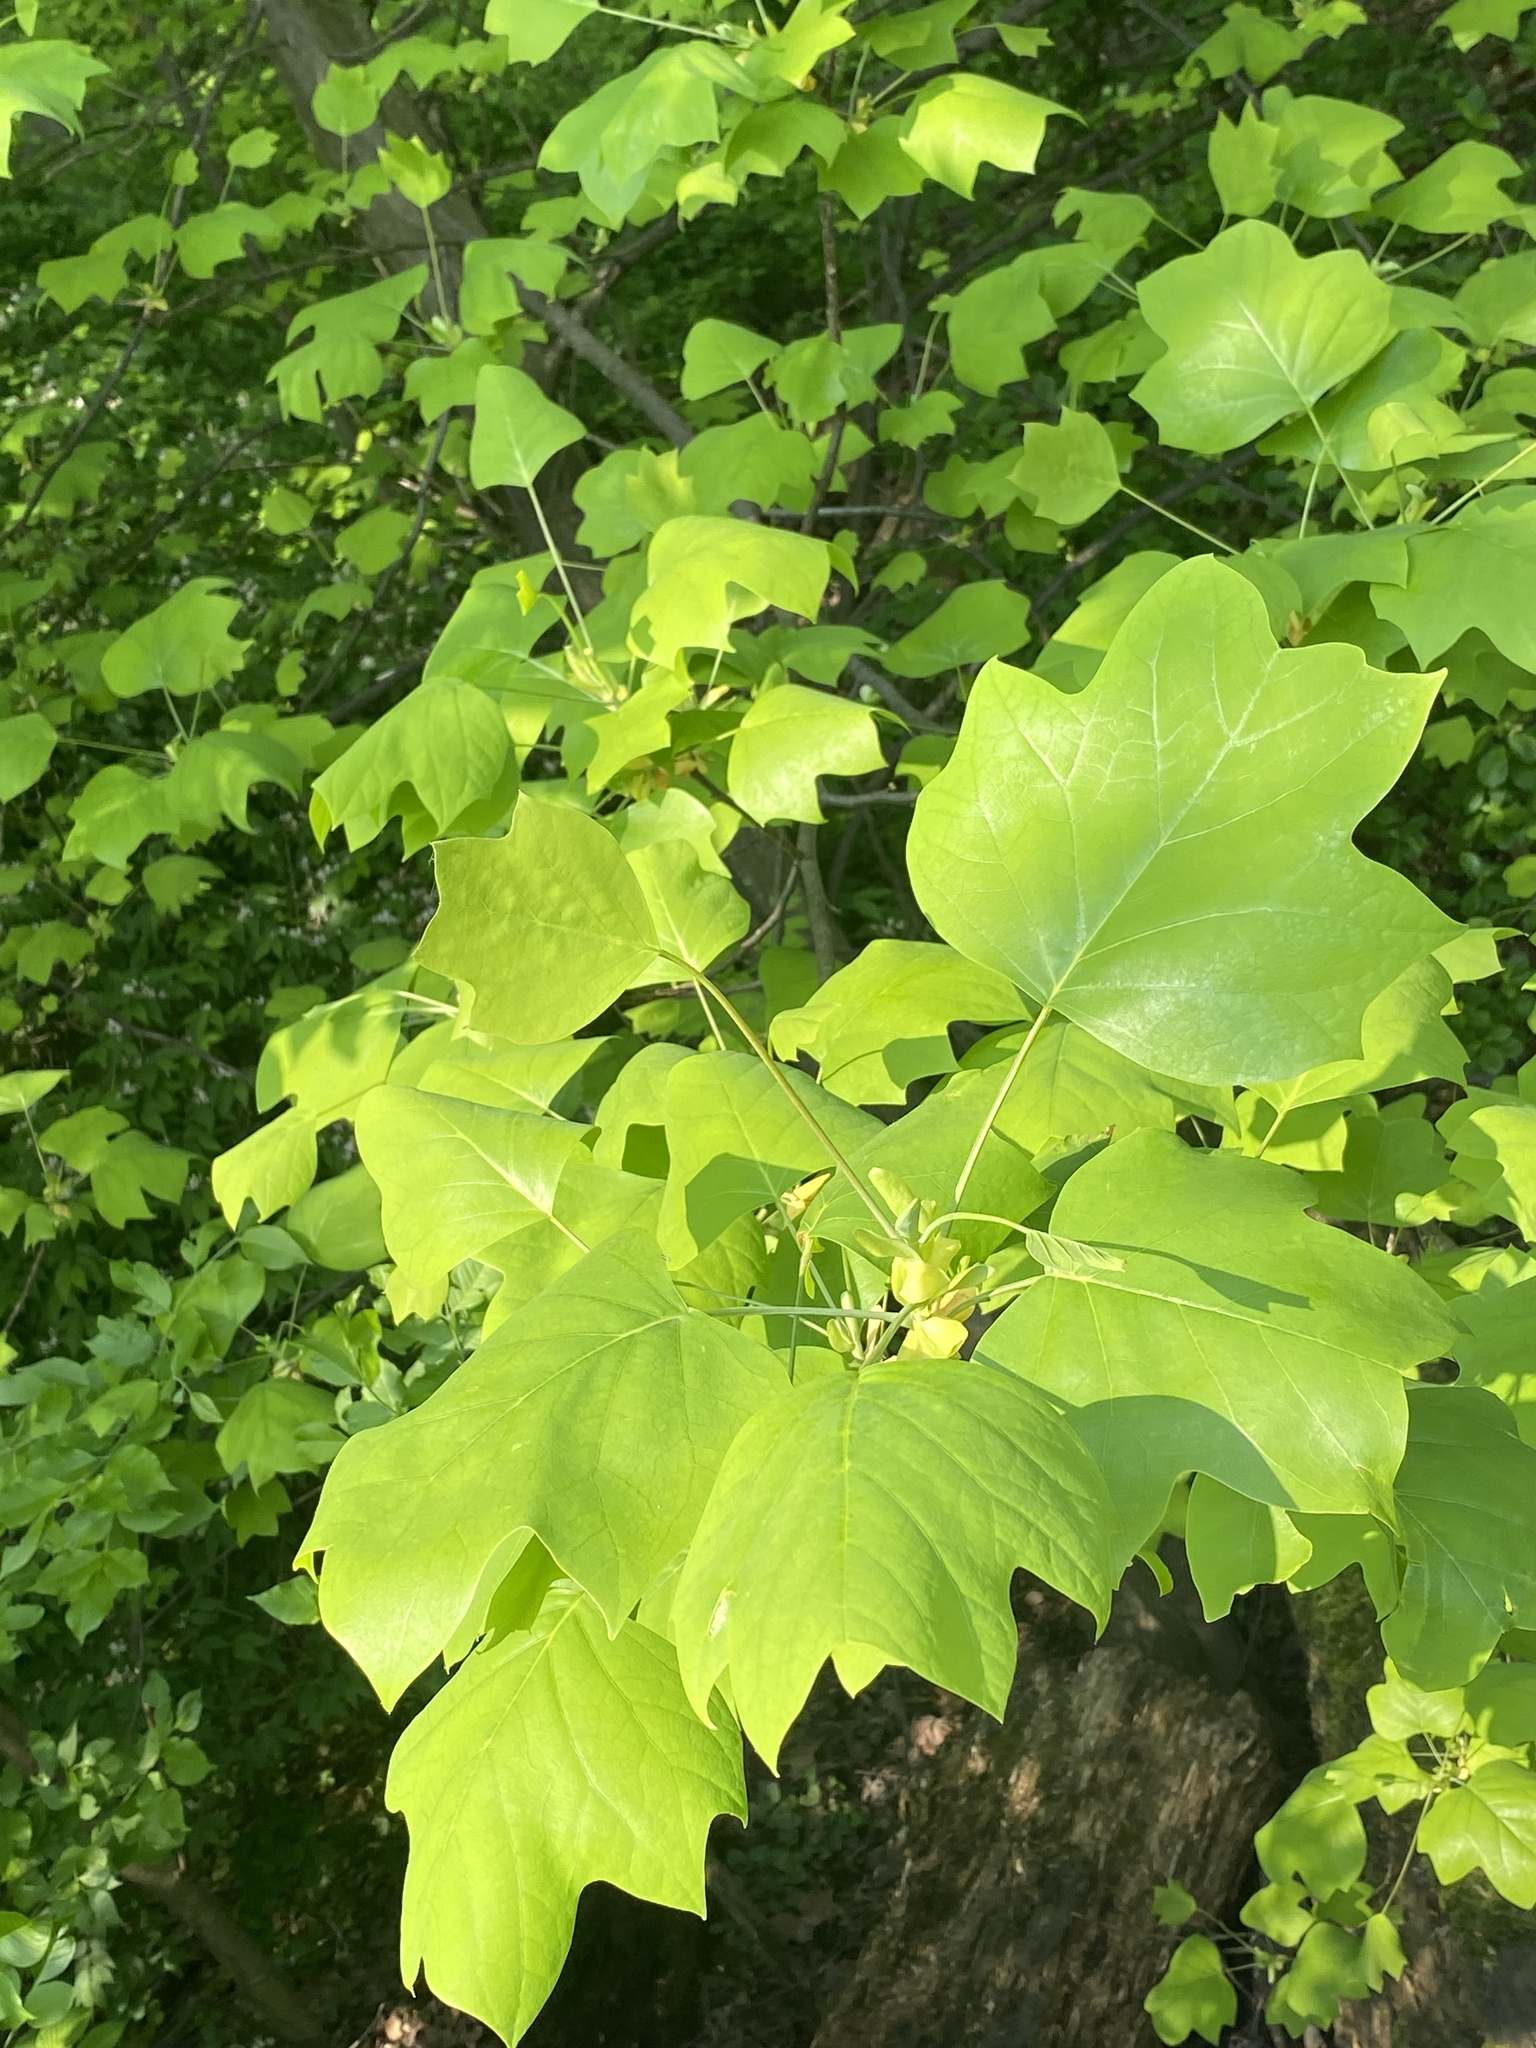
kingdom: Plantae
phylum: Tracheophyta
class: Magnoliopsida
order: Magnoliales
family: Magnoliaceae
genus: Liriodendron
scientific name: Liriodendron tulipifera
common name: Tulip tree
